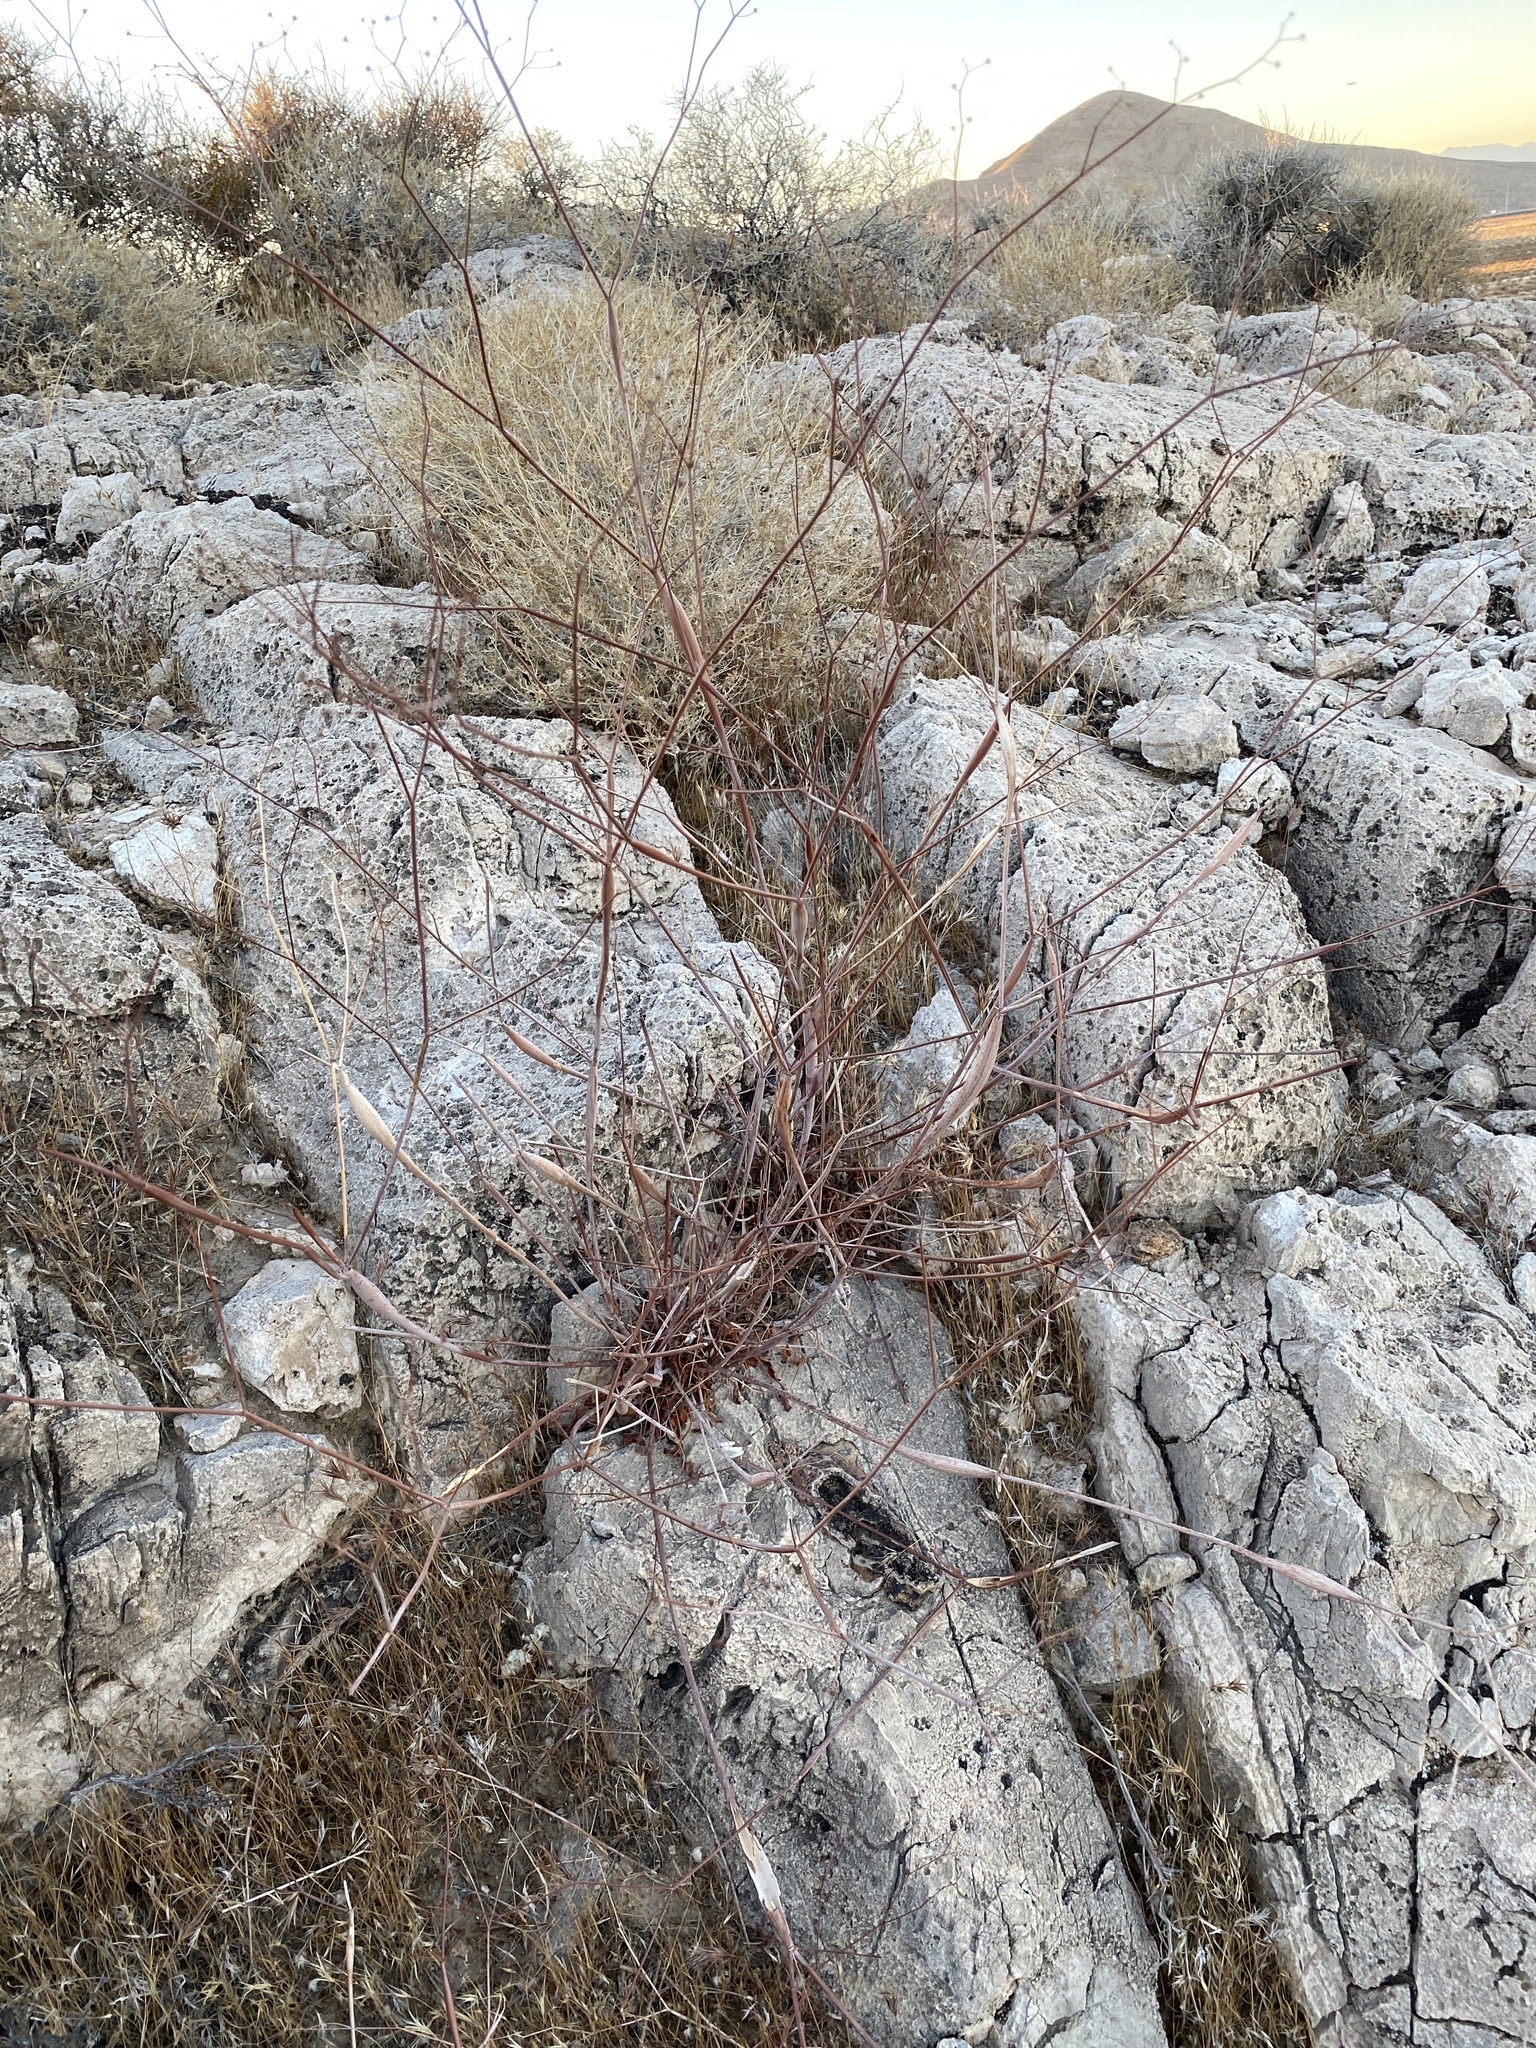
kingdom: Plantae
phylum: Tracheophyta
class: Magnoliopsida
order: Caryophyllales
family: Polygonaceae
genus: Eriogonum
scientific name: Eriogonum inflatum
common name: Desert trumpet
